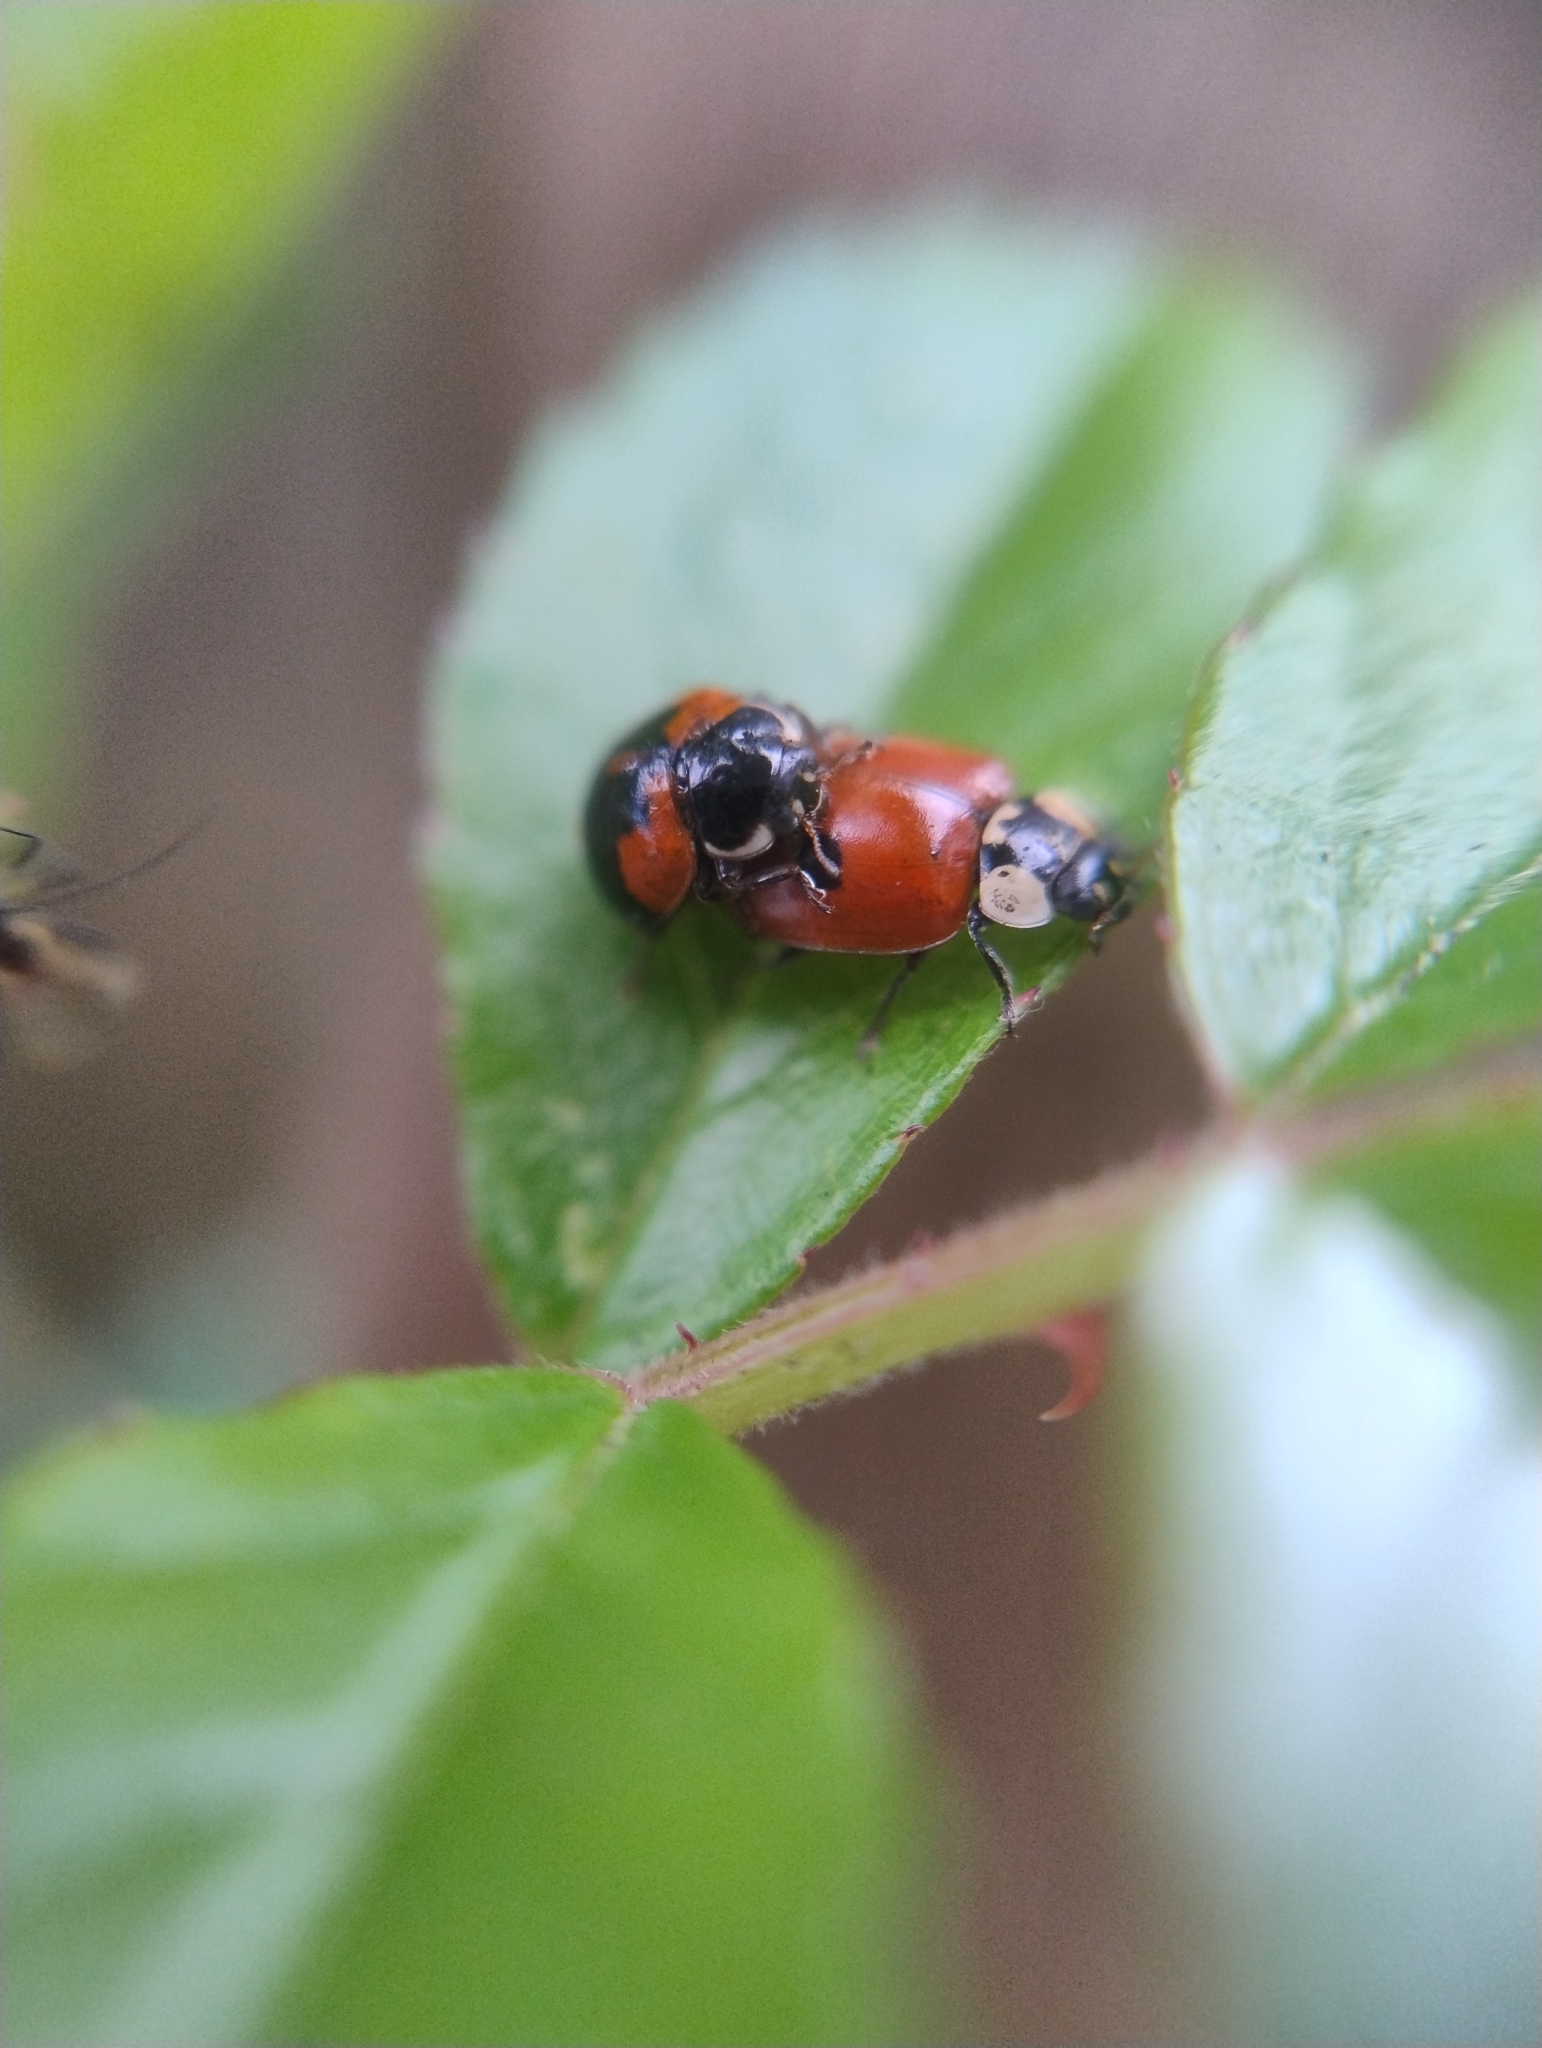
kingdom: Animalia
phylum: Arthropoda
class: Insecta
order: Coleoptera
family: Coccinellidae
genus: Adalia
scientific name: Adalia bipunctata
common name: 2-spot ladybird
